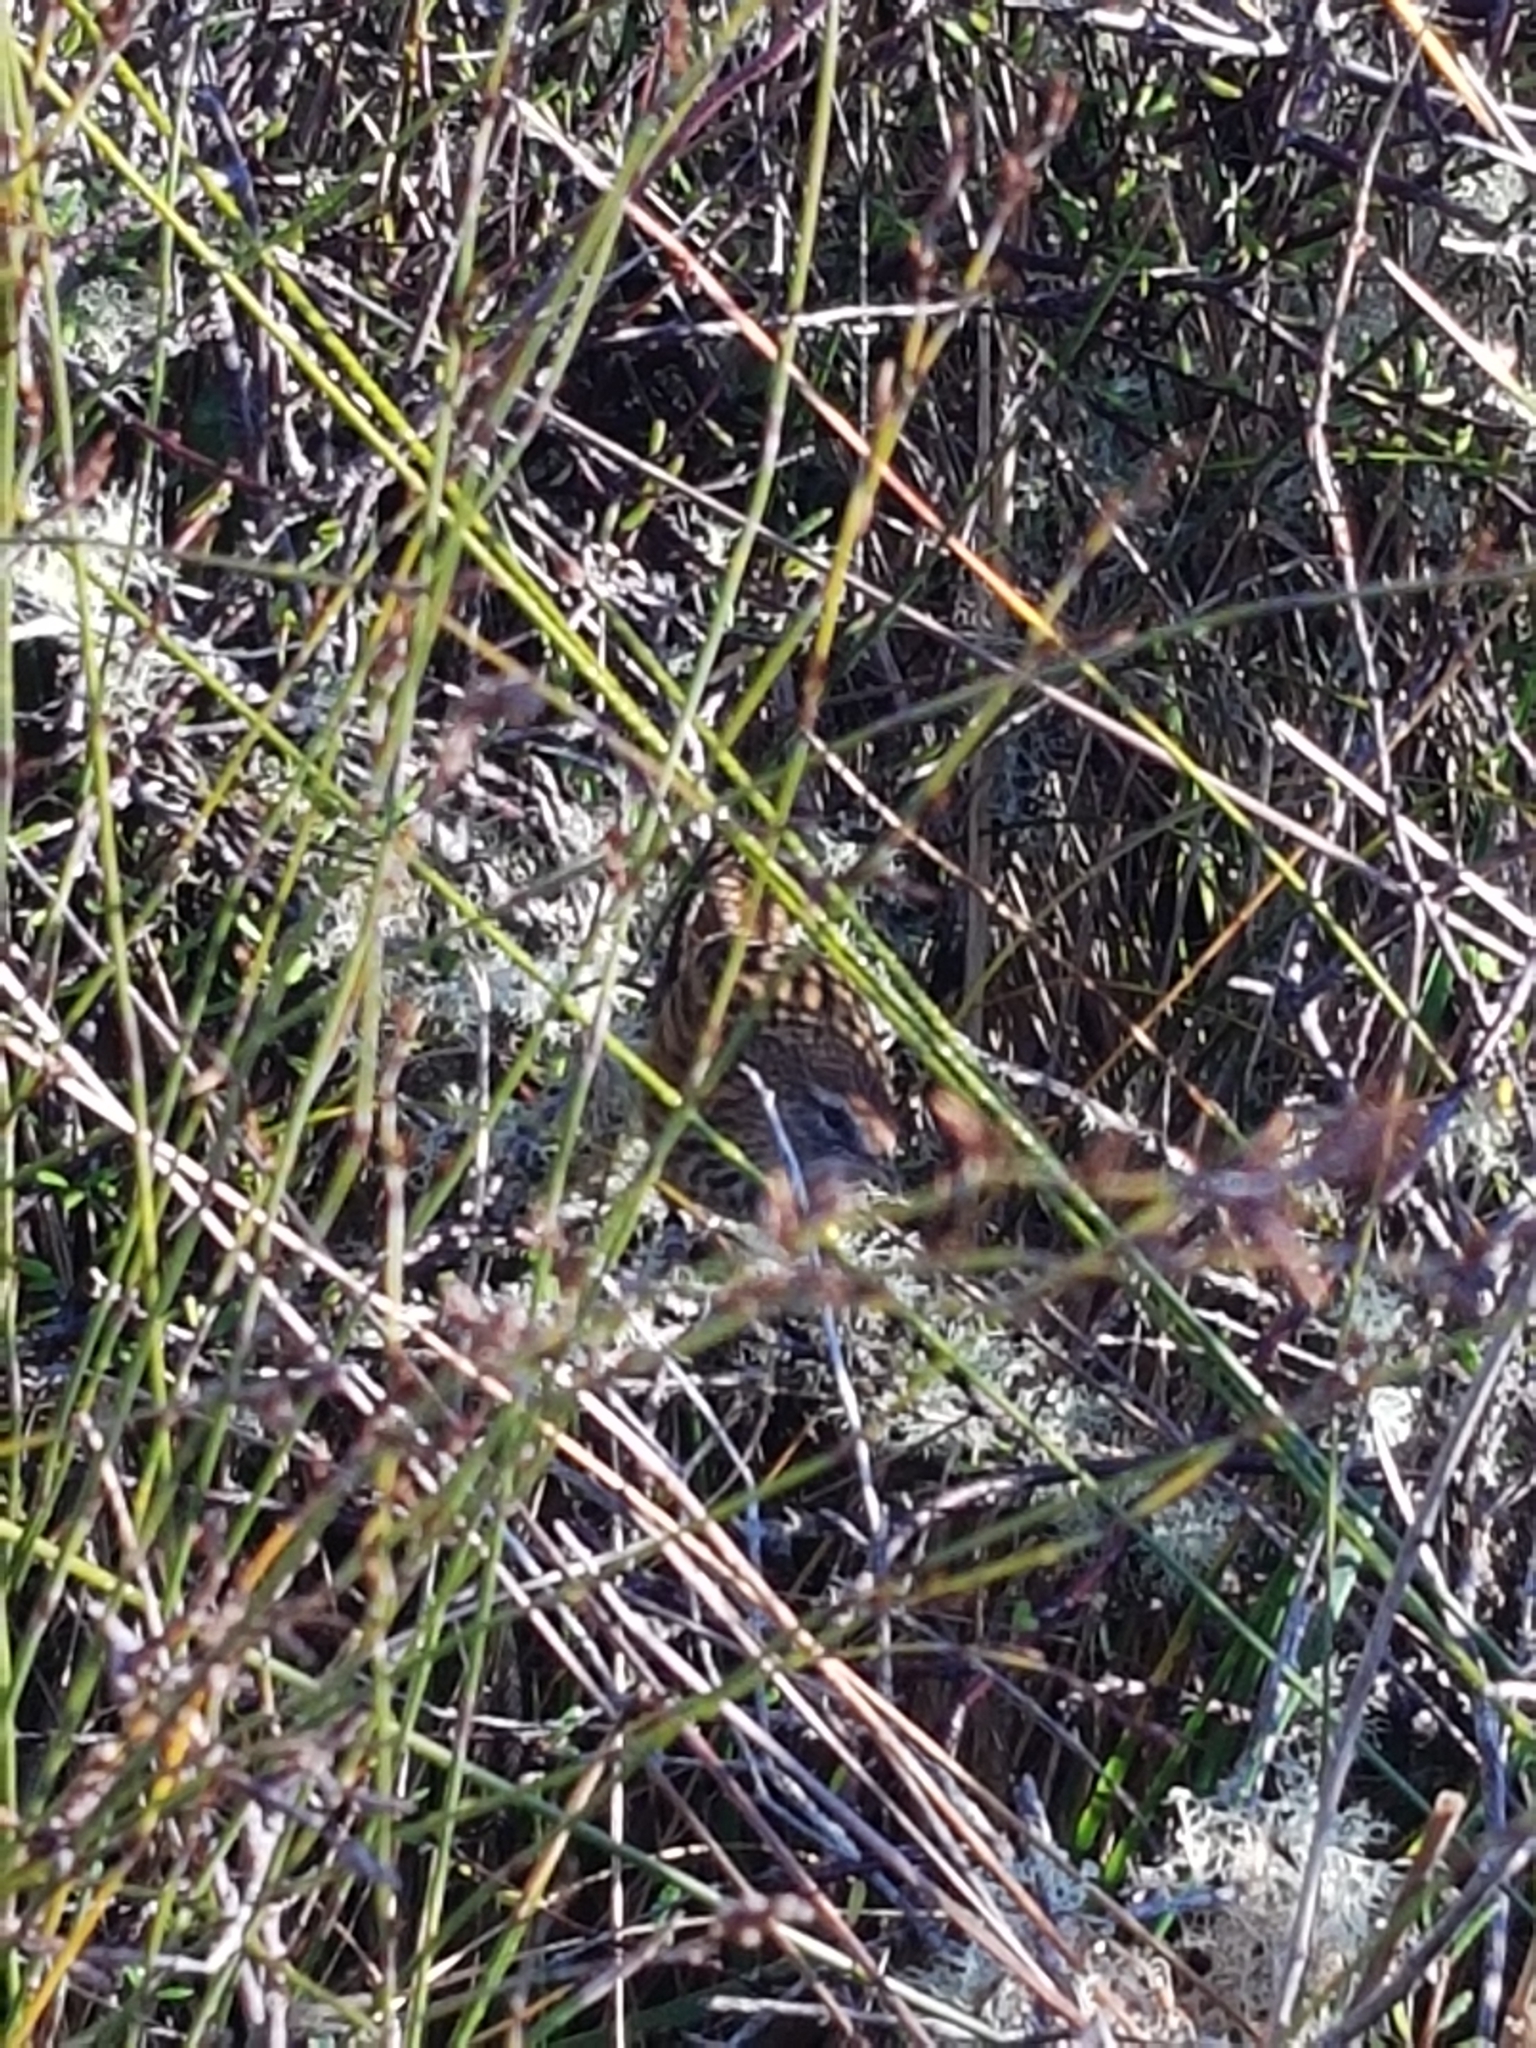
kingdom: Animalia
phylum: Chordata
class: Aves
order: Passeriformes
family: Locustellidae
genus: Megalurus
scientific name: Megalurus punctatus
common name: New zealand fernbird
